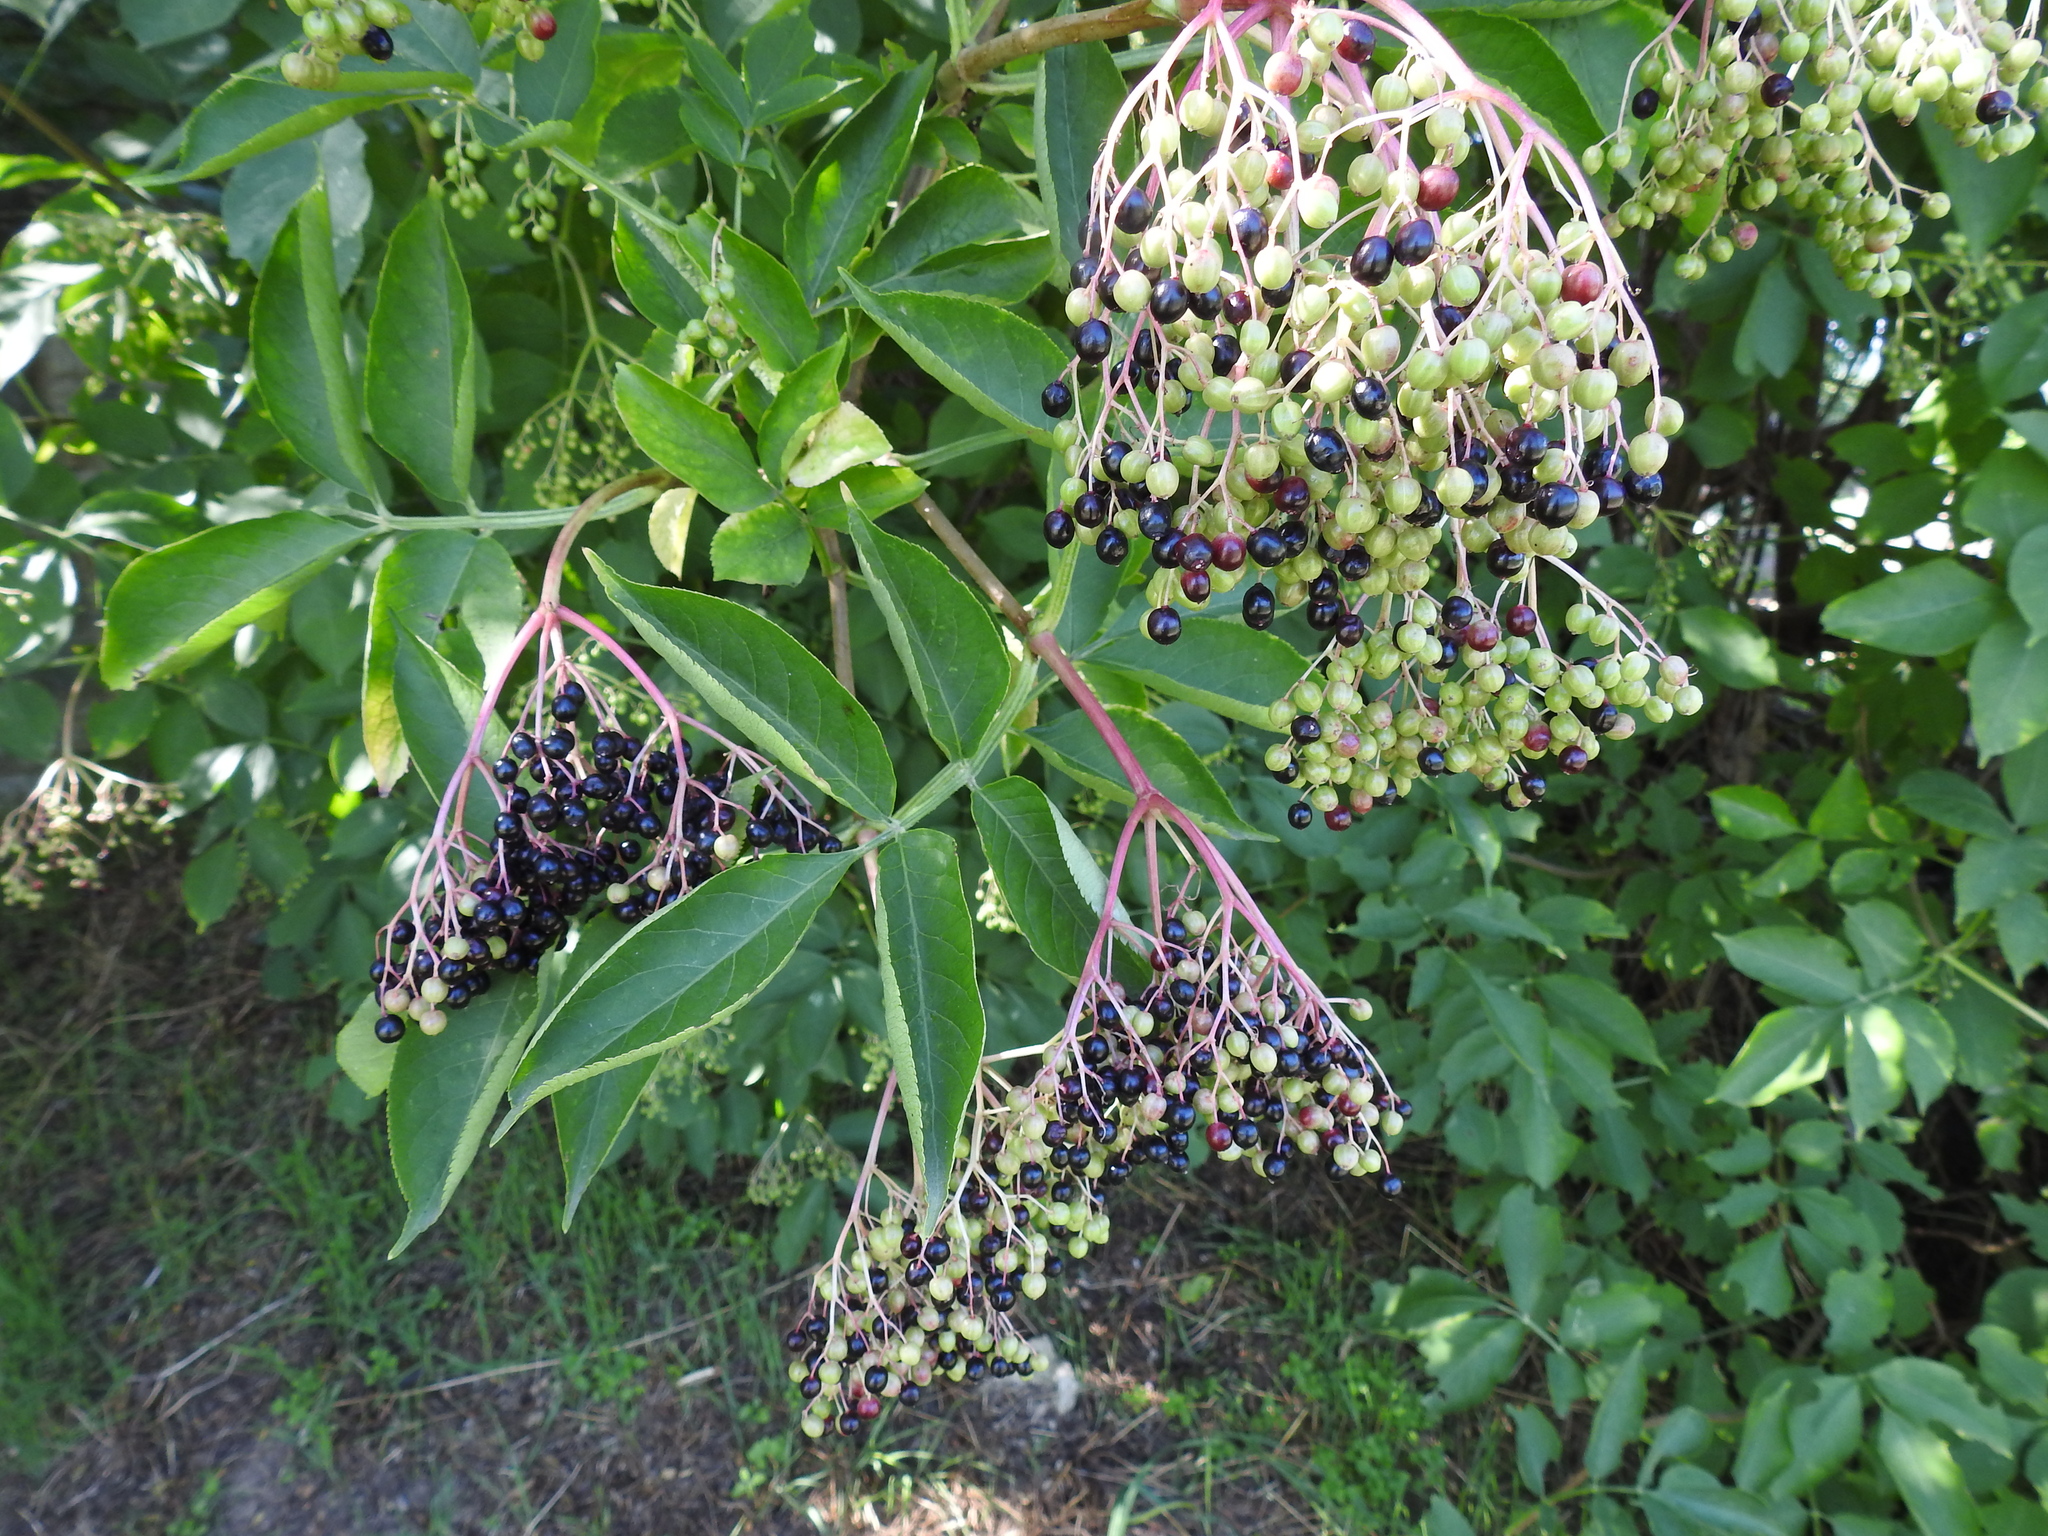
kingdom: Plantae
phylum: Tracheophyta
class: Magnoliopsida
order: Dipsacales
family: Viburnaceae
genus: Sambucus
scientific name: Sambucus nigra
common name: Elder
